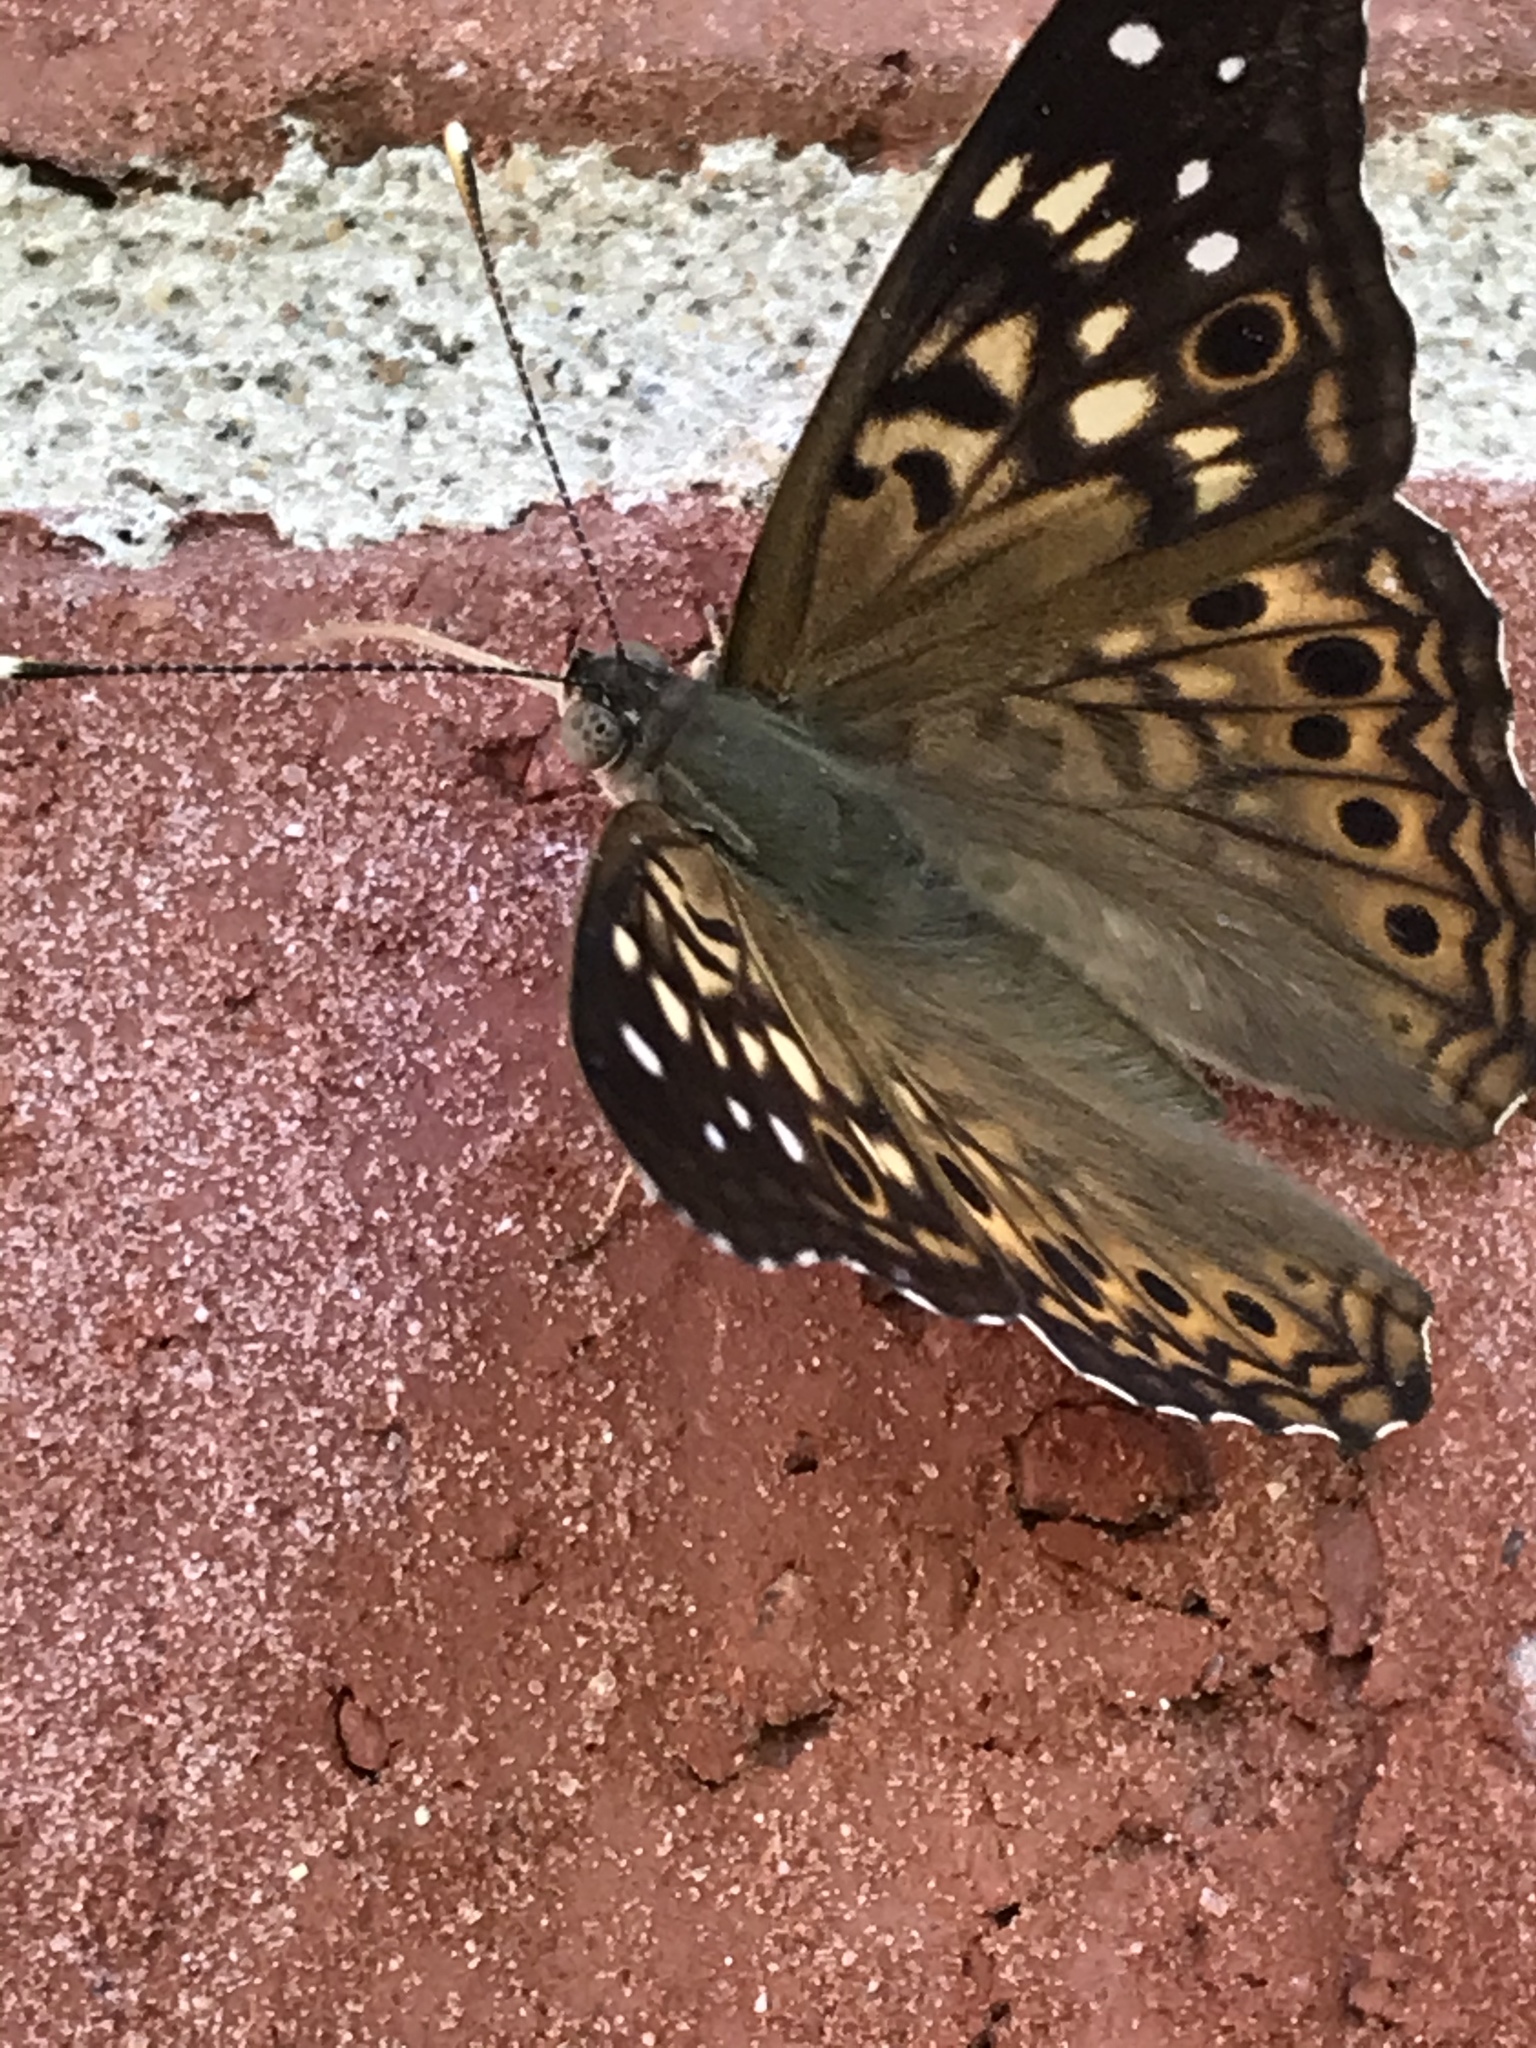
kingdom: Animalia
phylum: Arthropoda
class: Insecta
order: Lepidoptera
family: Nymphalidae
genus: Asterocampa
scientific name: Asterocampa celtis
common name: Hackberry emperor
